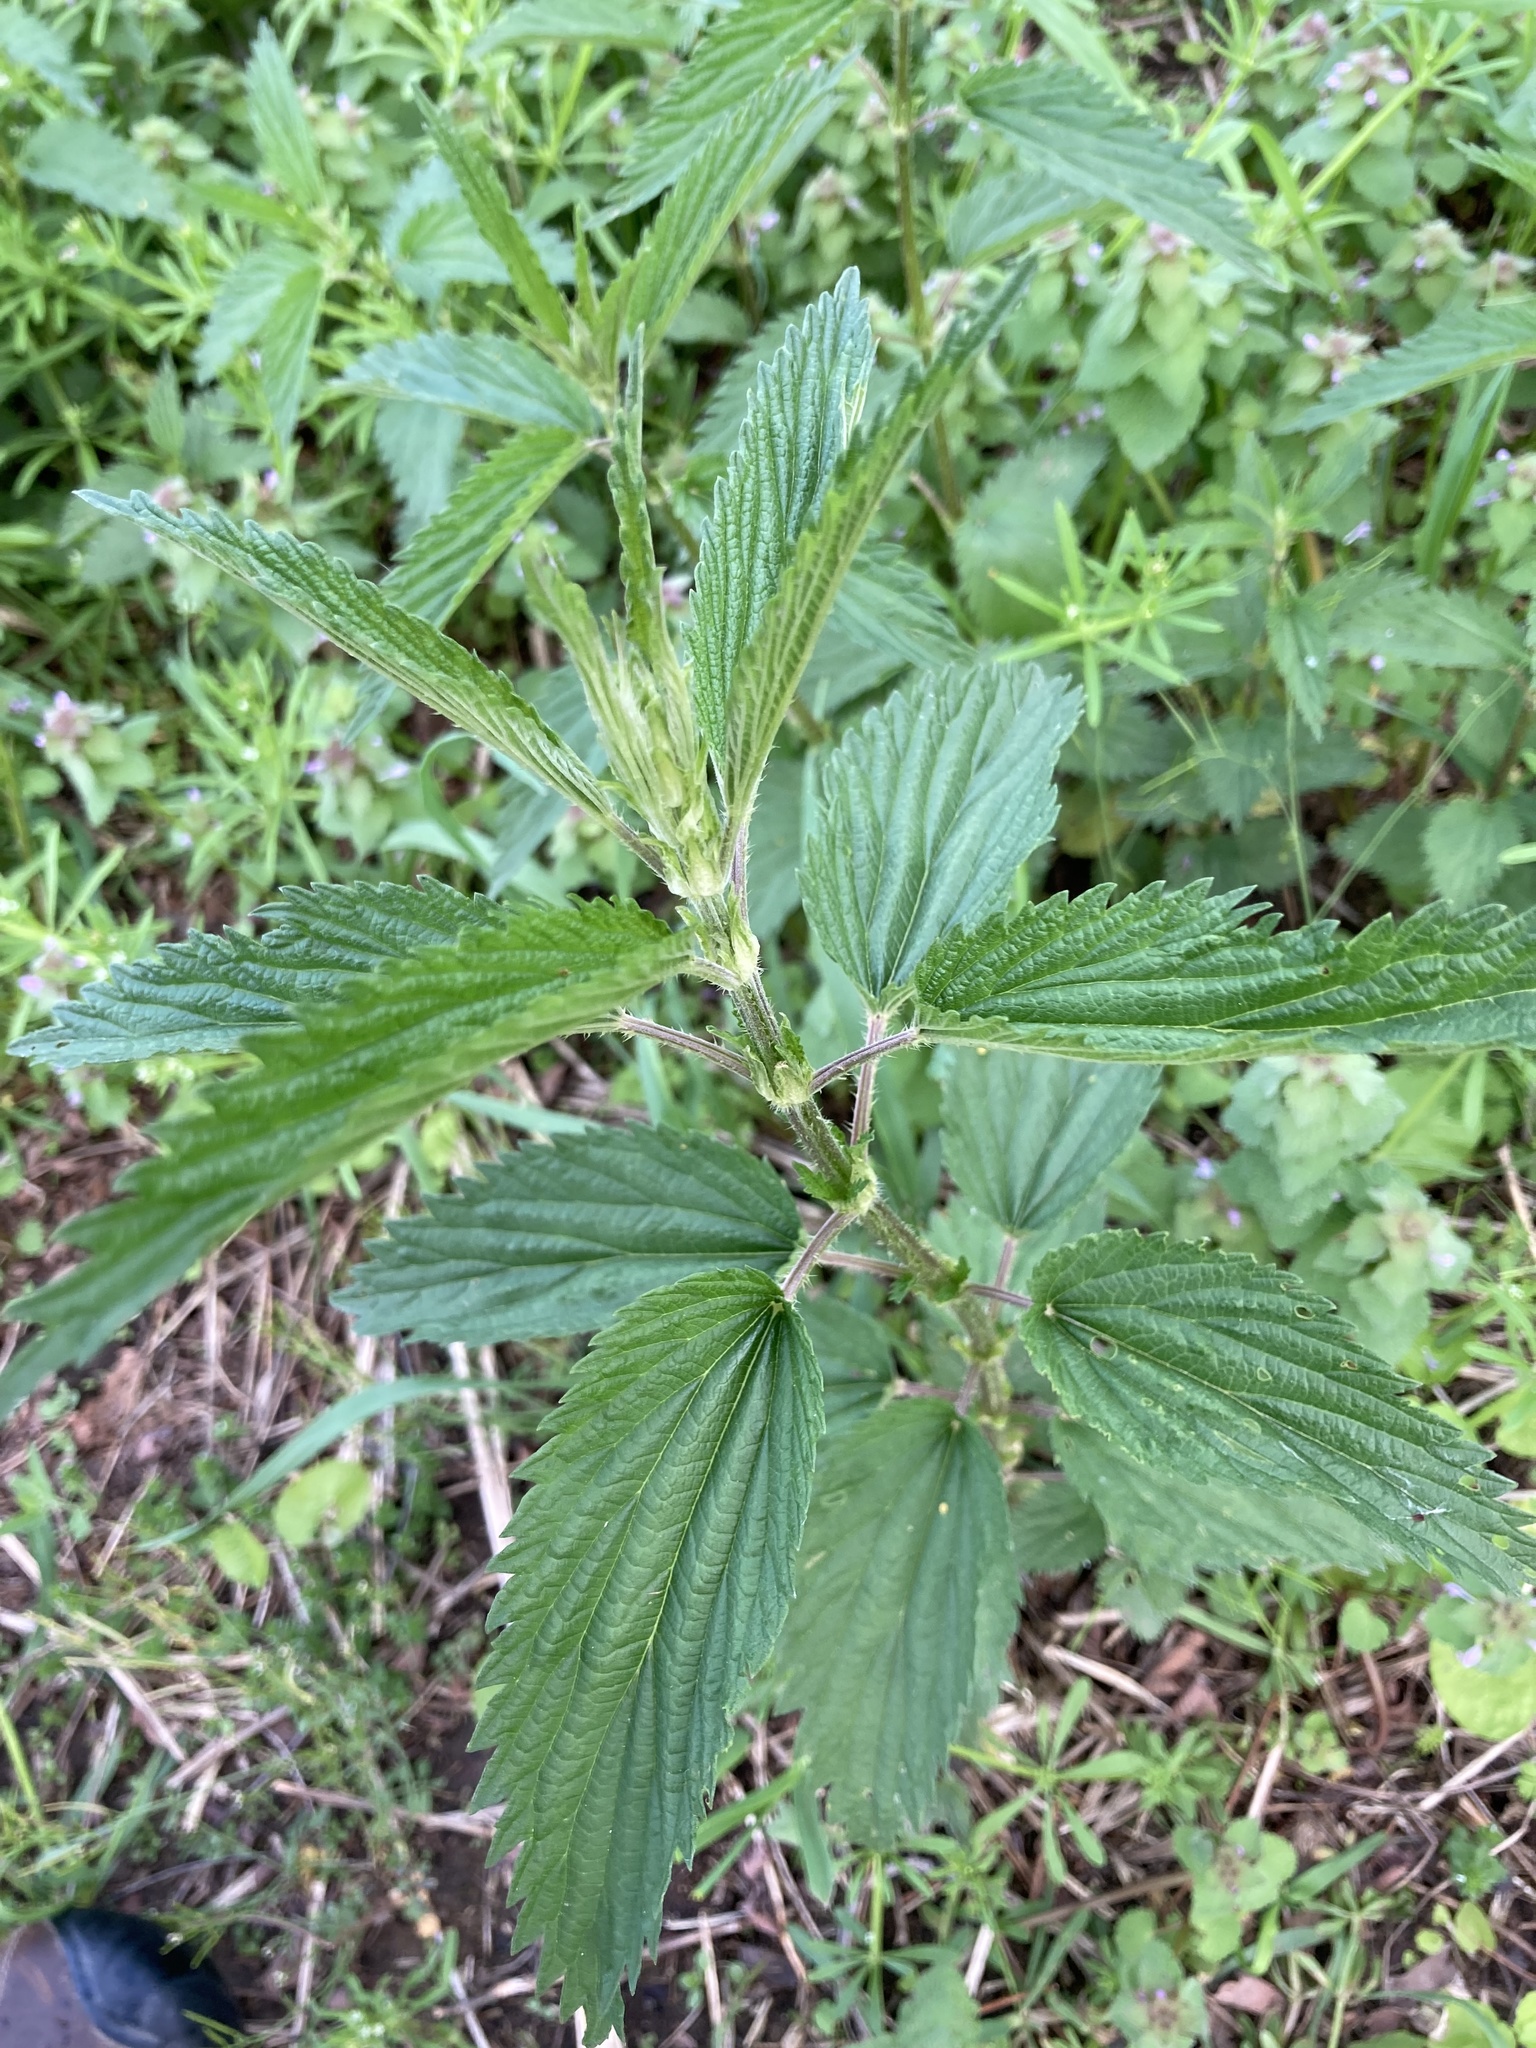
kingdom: Plantae
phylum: Tracheophyta
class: Magnoliopsida
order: Rosales
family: Urticaceae
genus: Urtica
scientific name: Urtica dioica
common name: Common nettle
